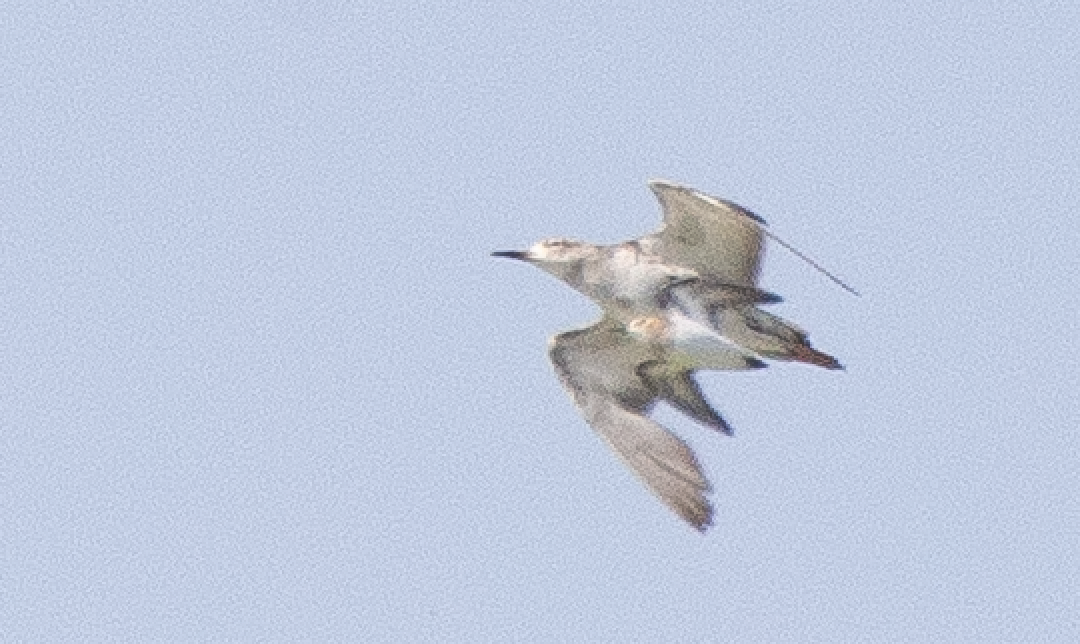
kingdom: Animalia
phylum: Chordata
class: Aves
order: Charadriiformes
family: Scolopacidae
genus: Calidris
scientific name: Calidris minuta
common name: Little stint
